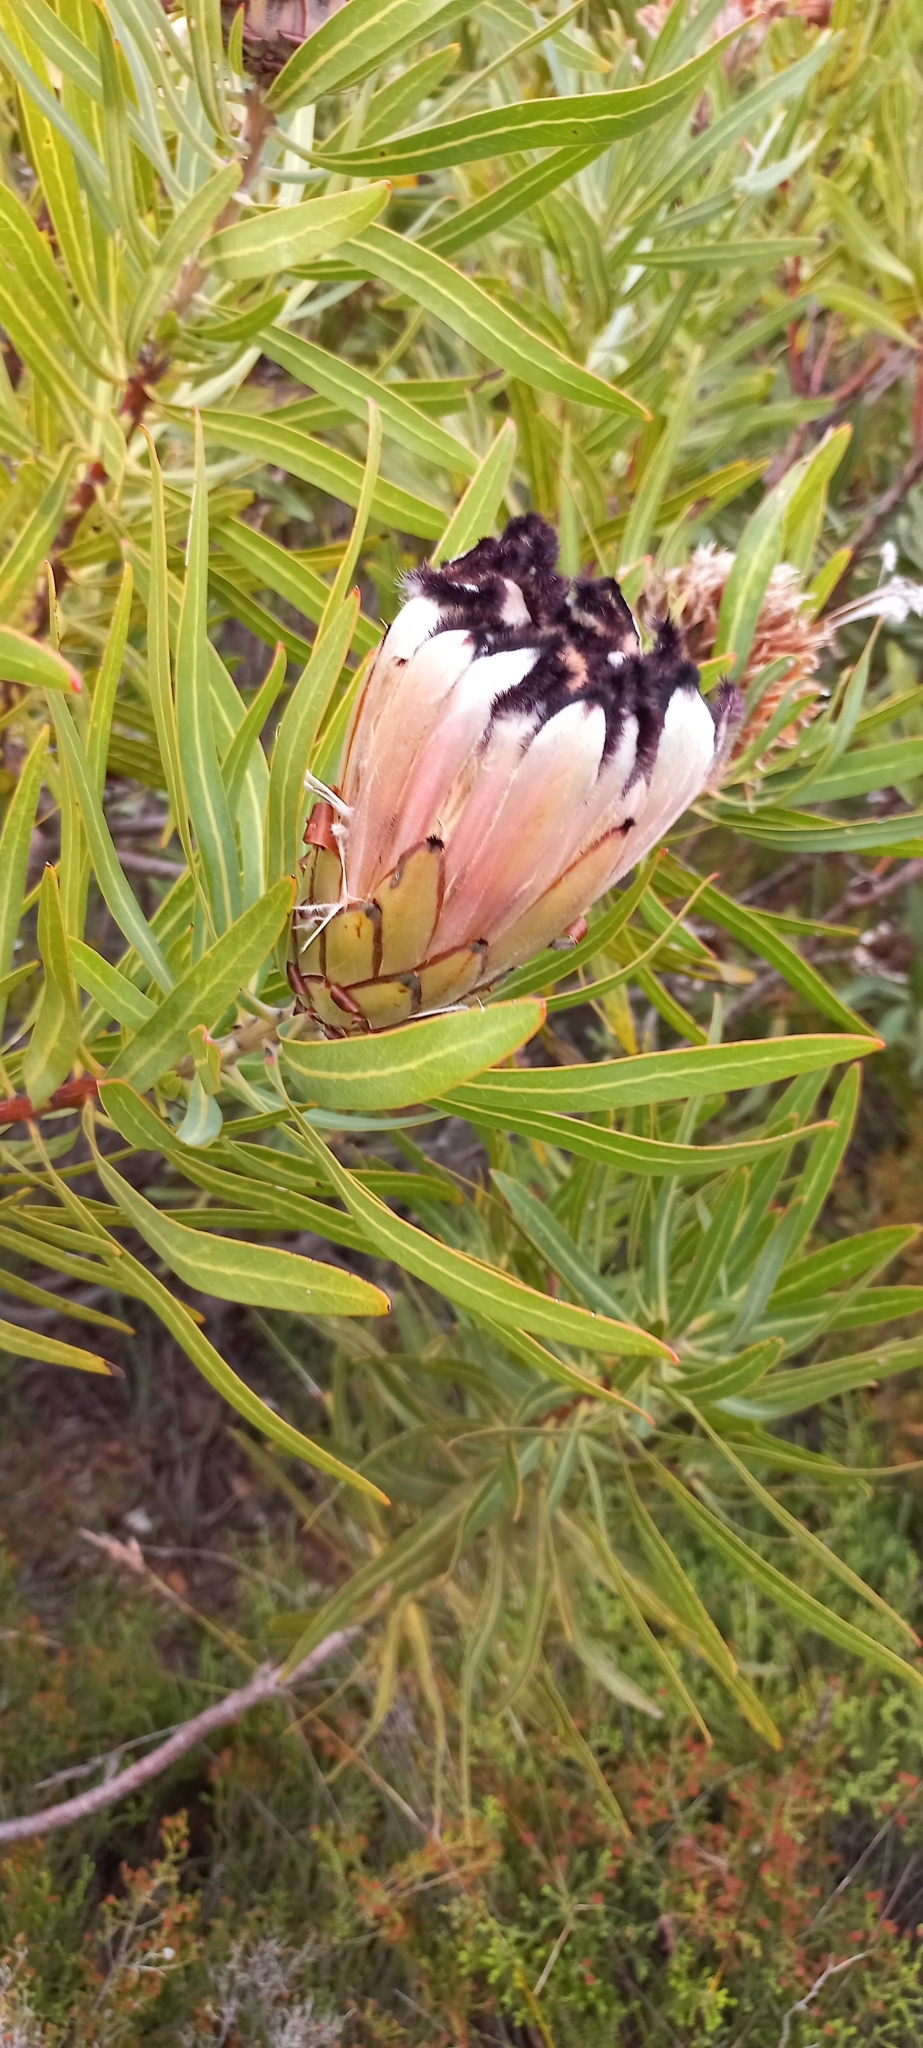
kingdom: Plantae
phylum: Tracheophyta
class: Magnoliopsida
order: Proteales
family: Proteaceae
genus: Protea
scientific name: Protea neriifolia
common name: Blue sugarbush
